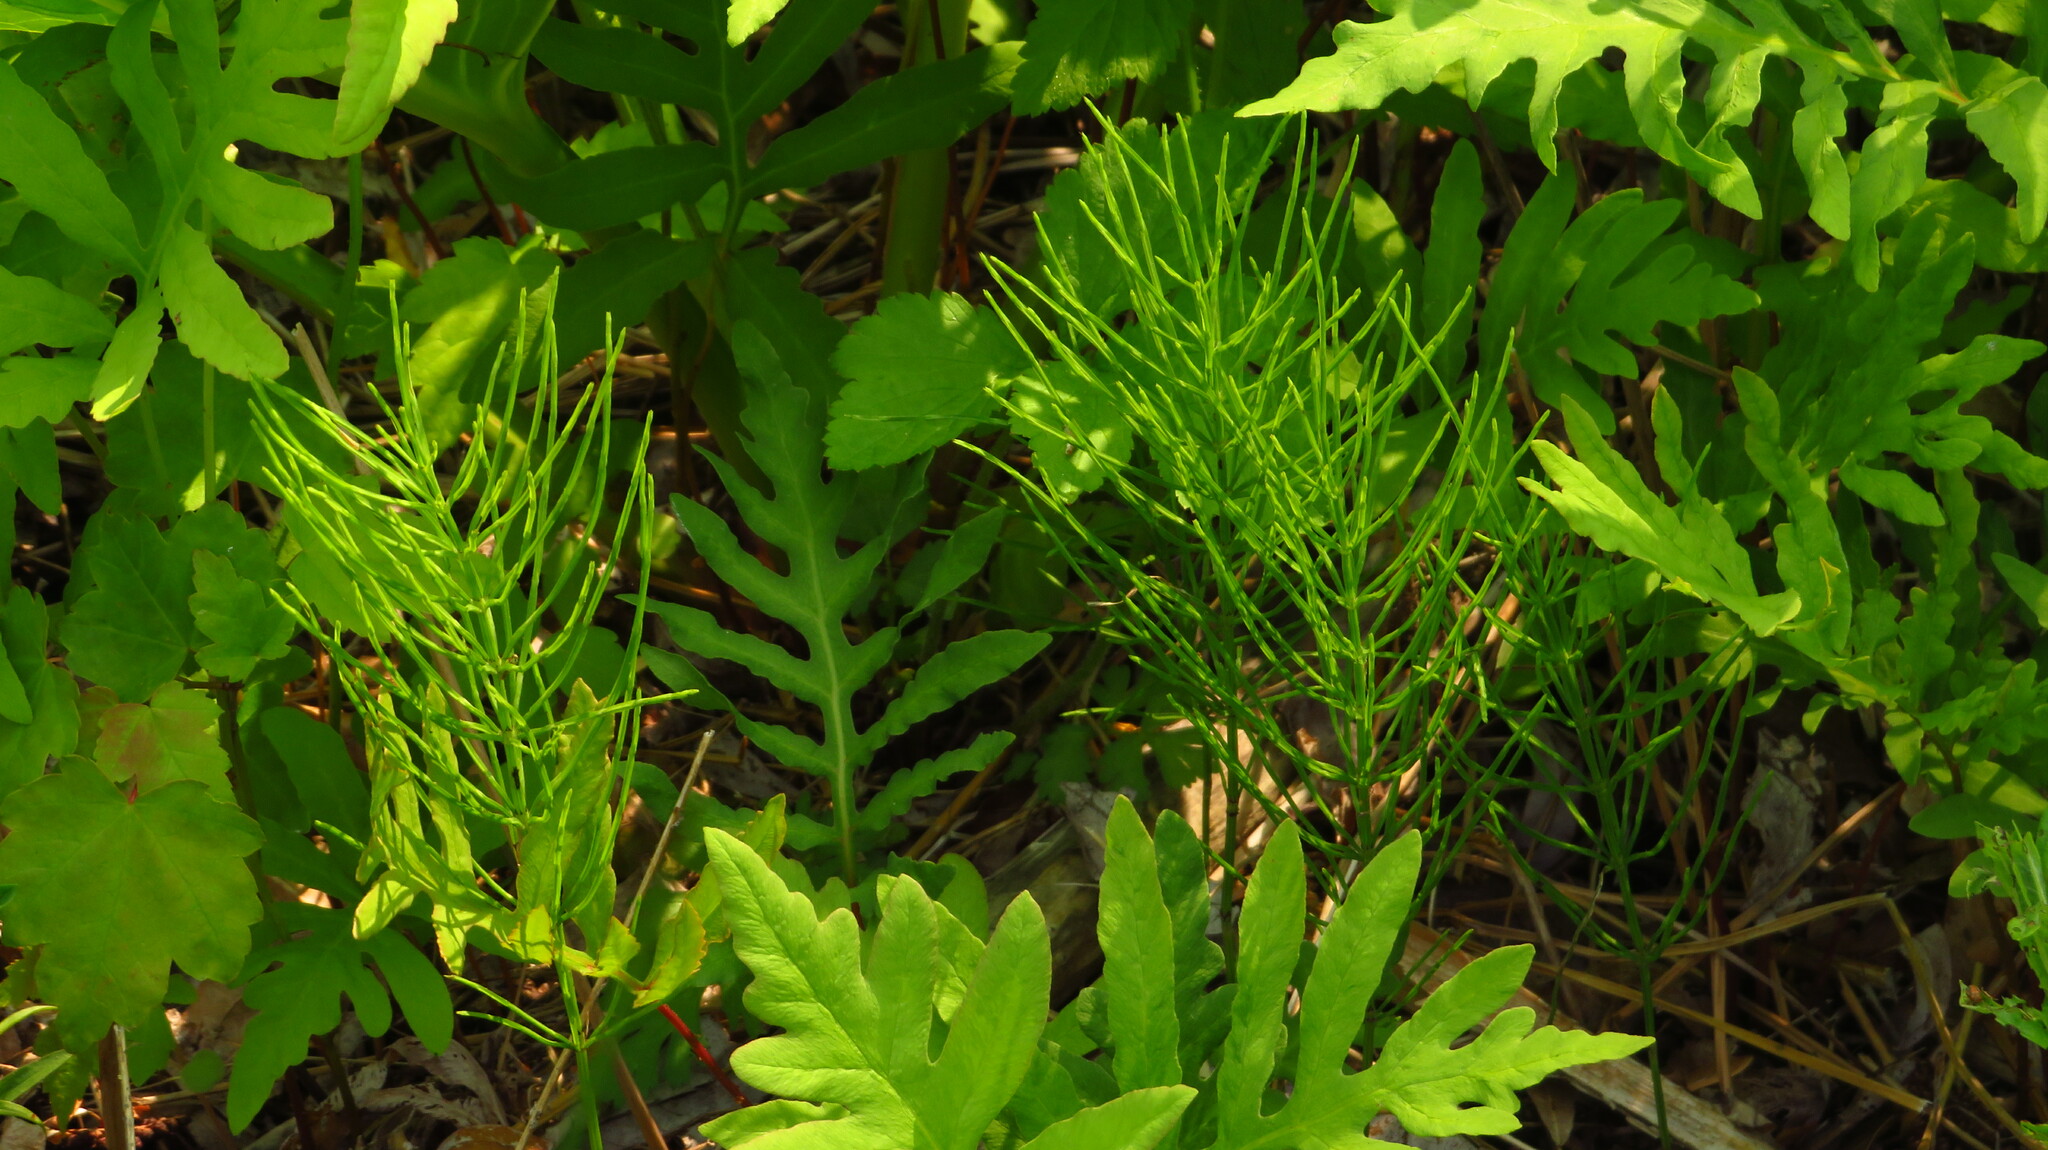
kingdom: Plantae
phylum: Tracheophyta
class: Polypodiopsida
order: Equisetales
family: Equisetaceae
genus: Equisetum
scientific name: Equisetum arvense
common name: Field horsetail
